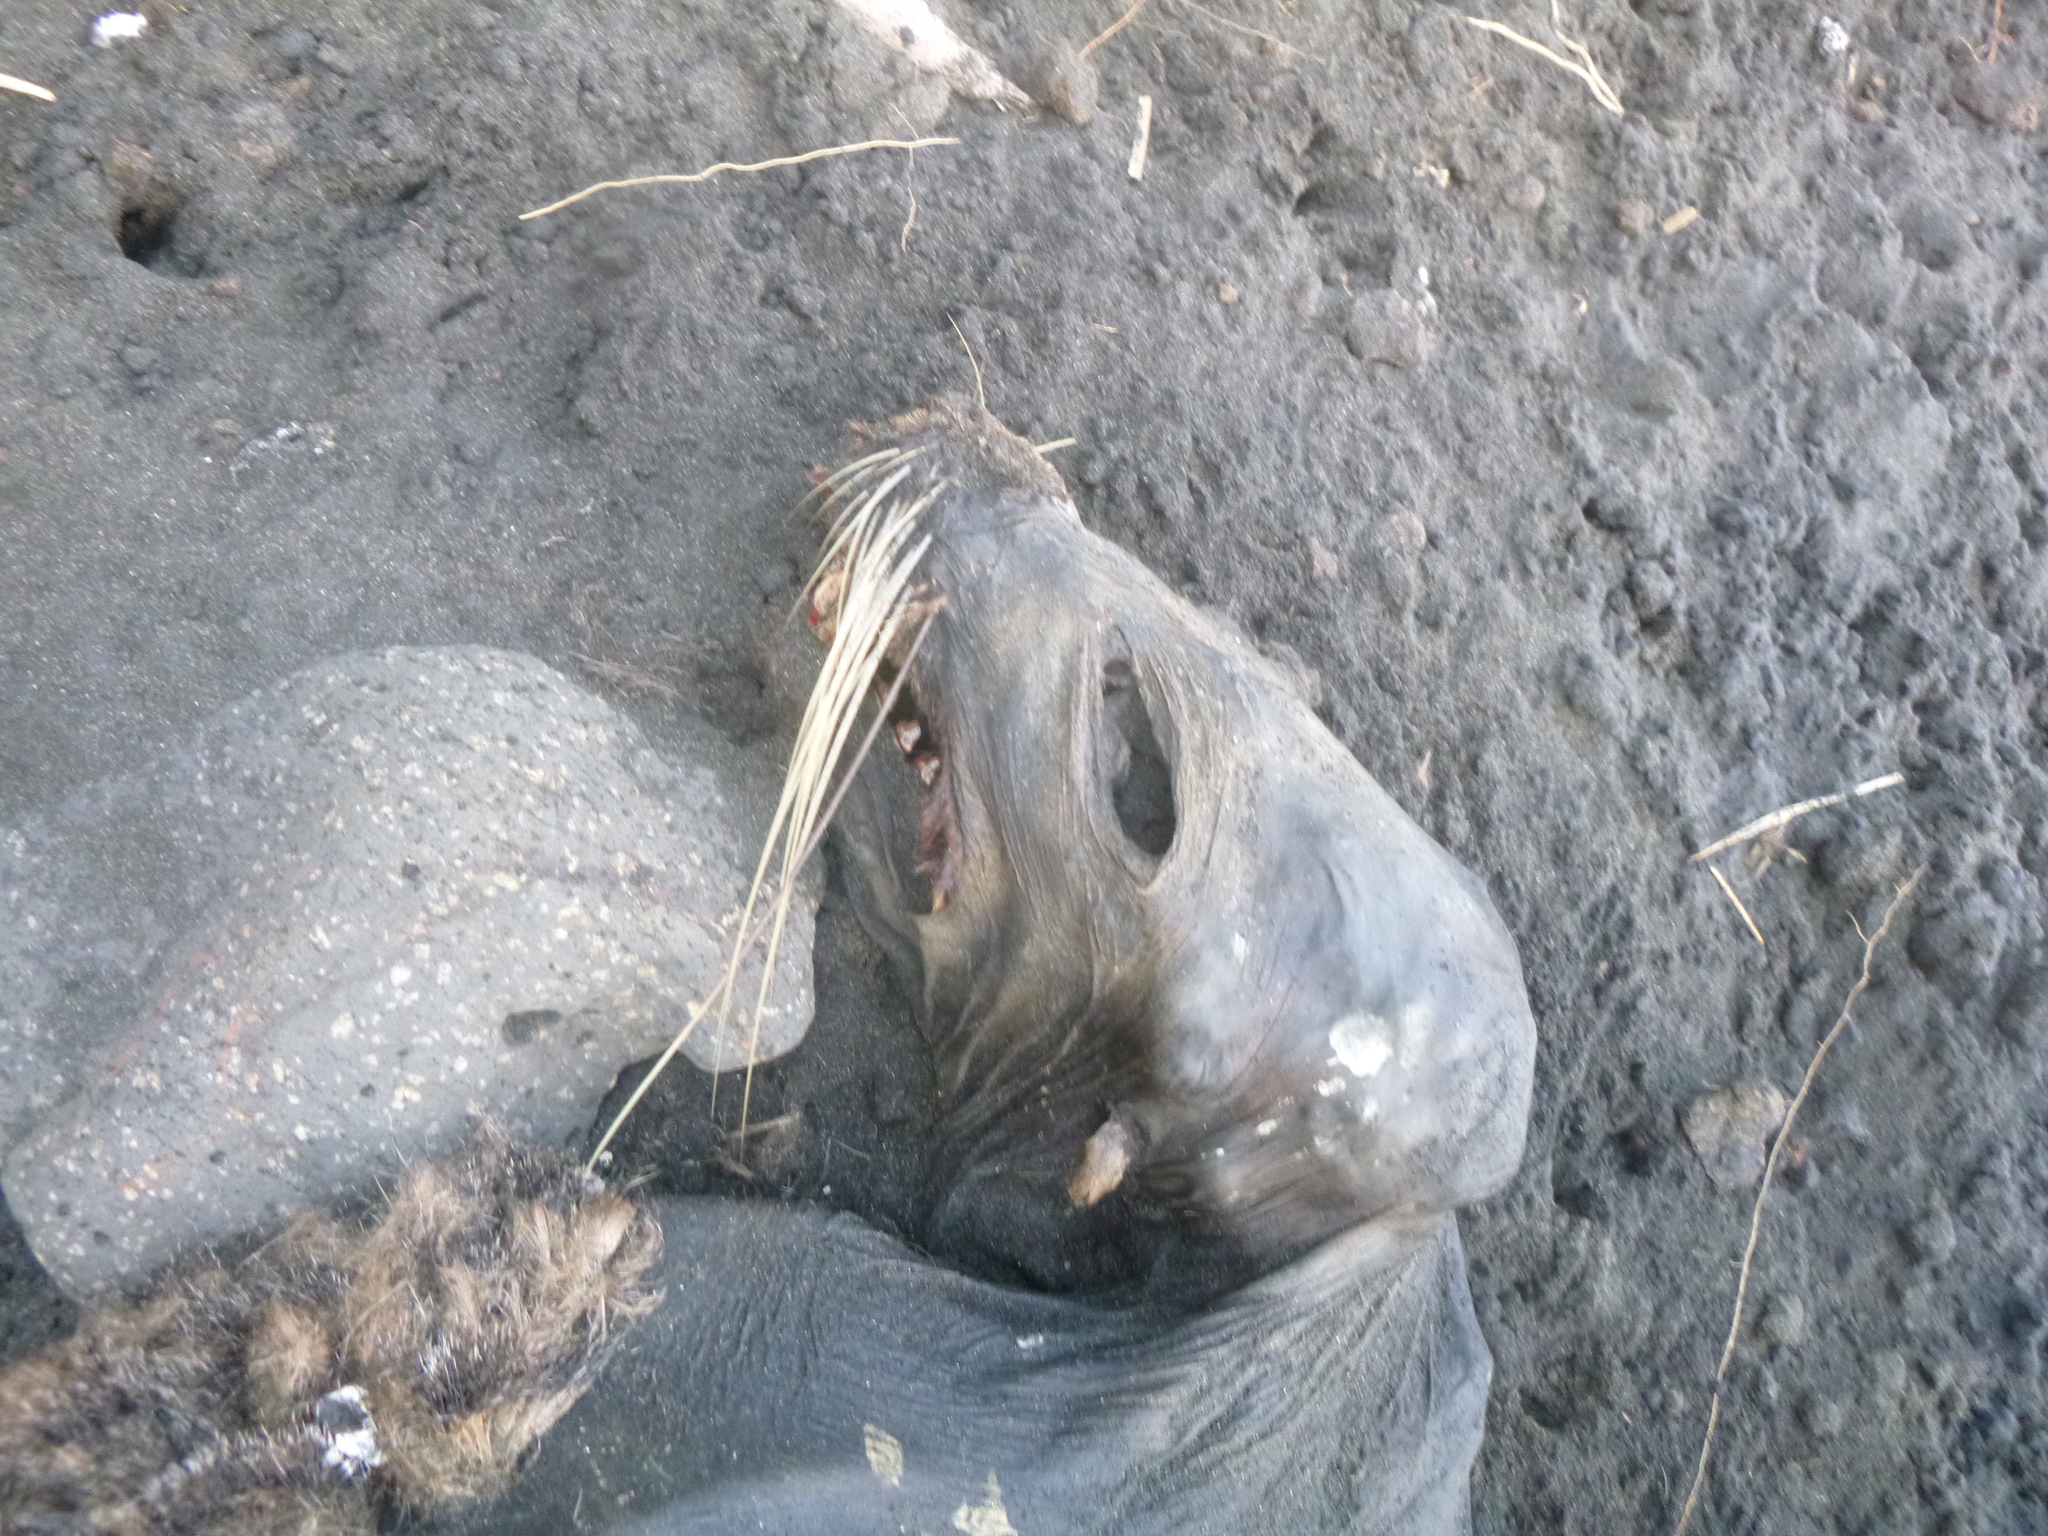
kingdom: Animalia
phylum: Chordata
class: Mammalia
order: Carnivora
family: Otariidae
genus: Arctocephalus
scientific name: Arctocephalus forsteri
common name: New zealand fur seal
